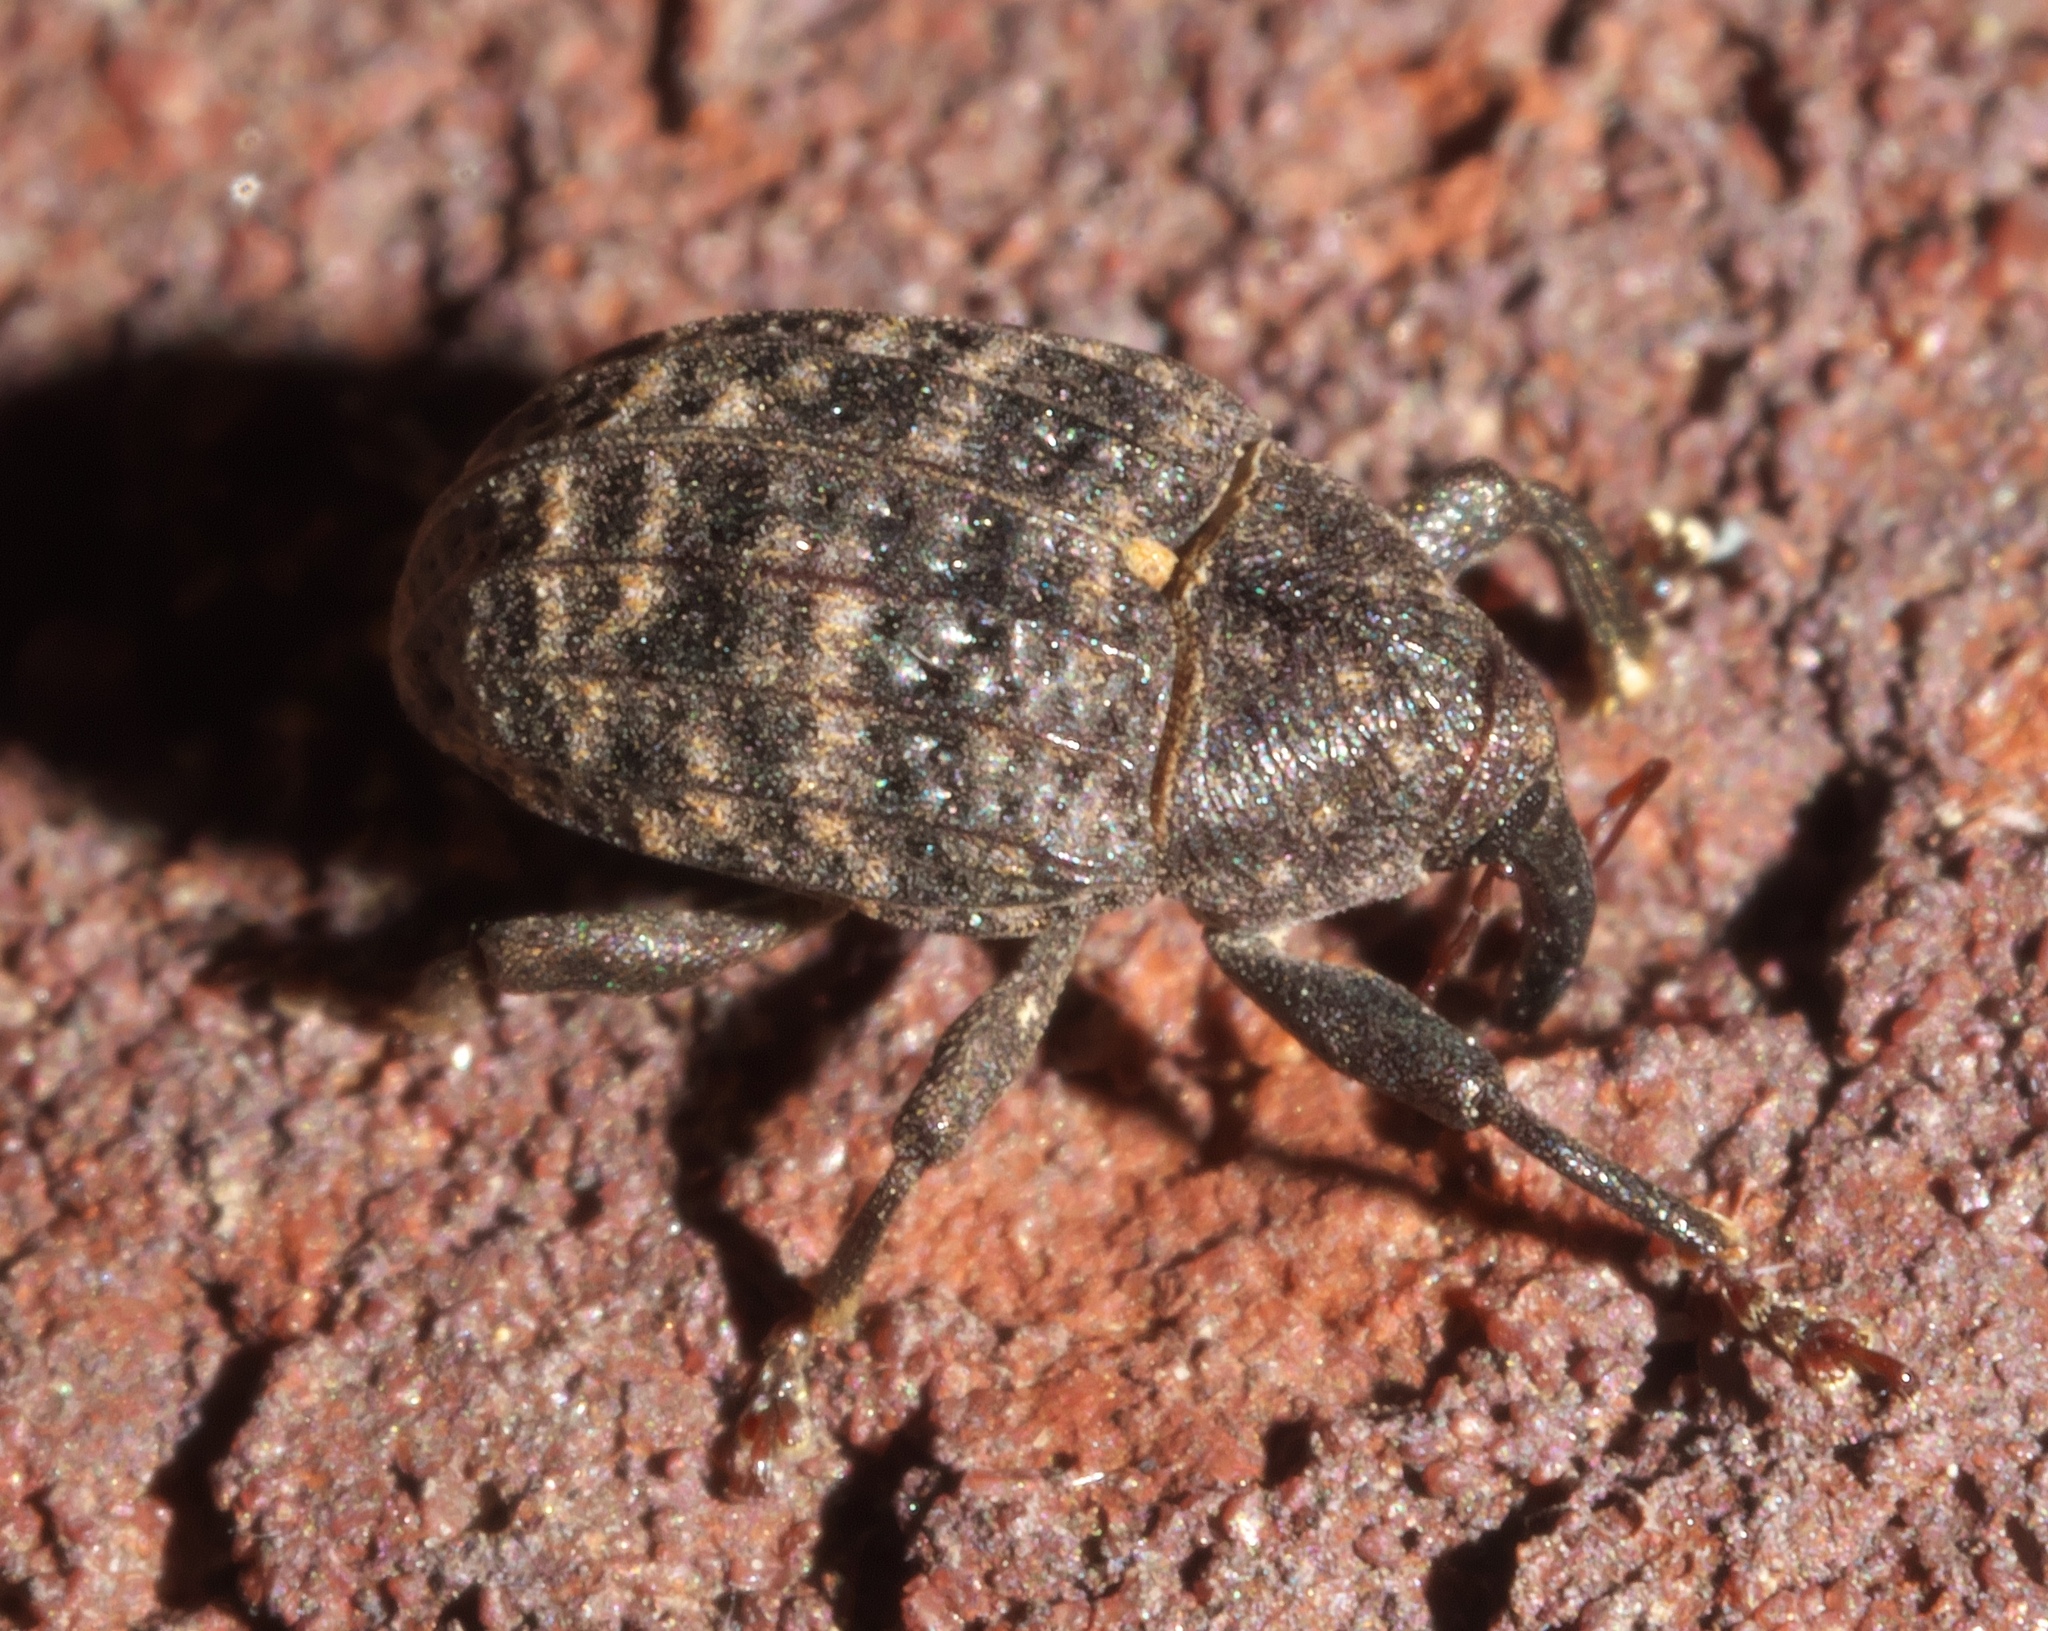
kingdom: Animalia
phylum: Arthropoda
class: Insecta
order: Coleoptera
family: Curculionidae
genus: Rhyssomatus
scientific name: Rhyssomatus palmacollis
